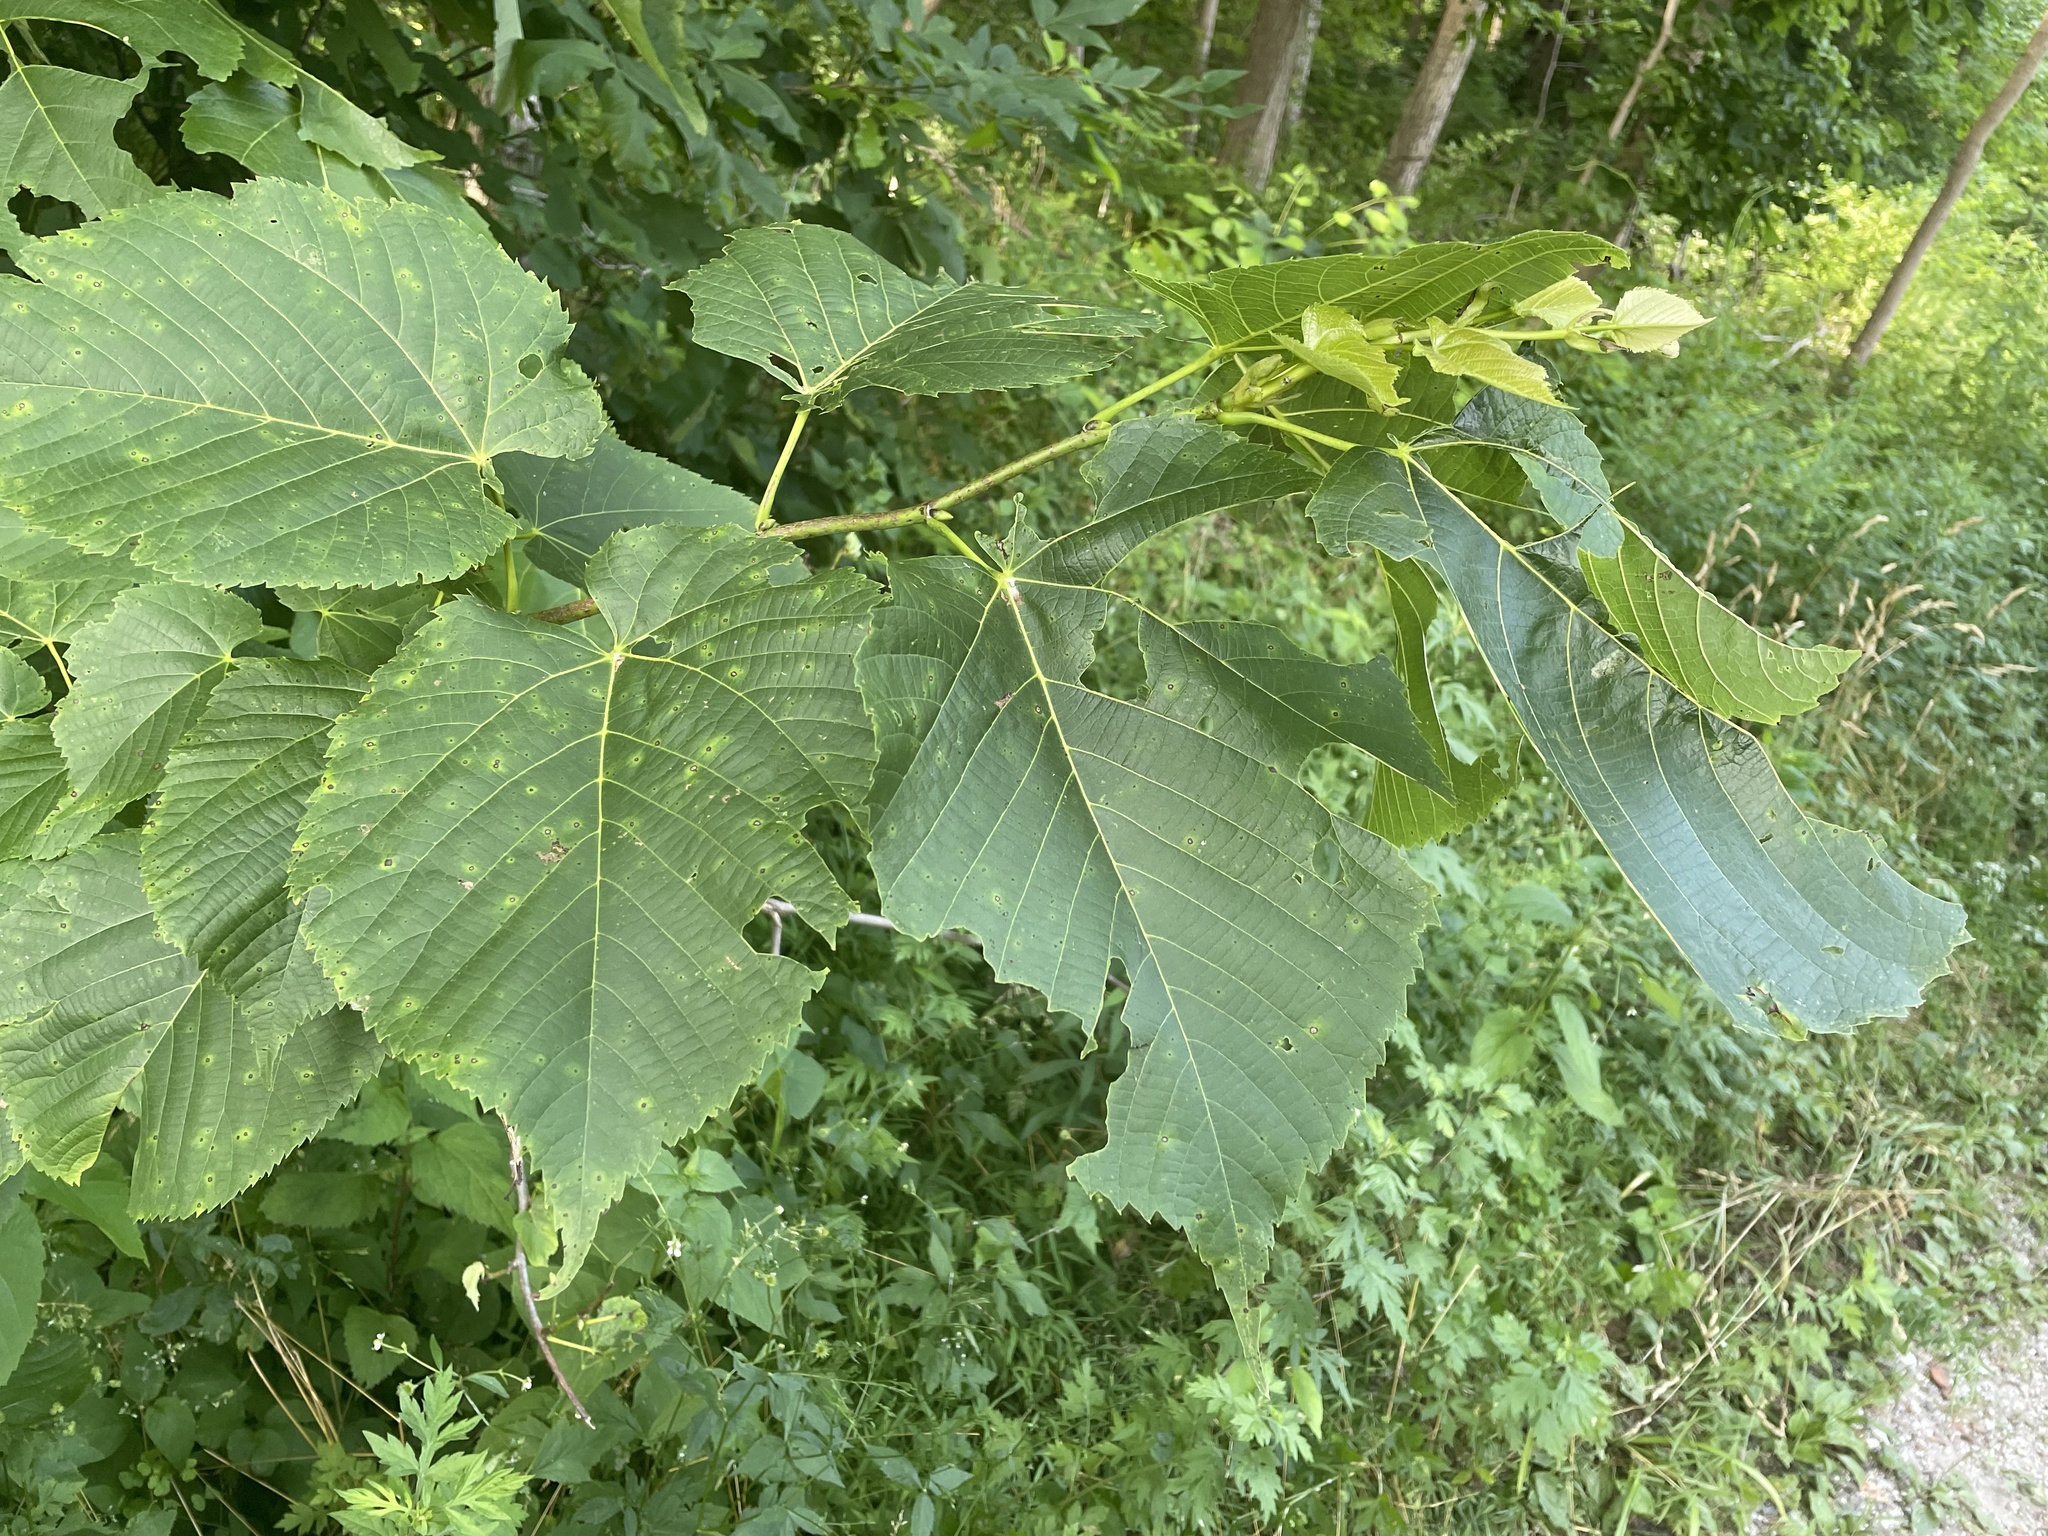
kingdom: Plantae
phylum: Tracheophyta
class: Magnoliopsida
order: Malvales
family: Malvaceae
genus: Tilia
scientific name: Tilia americana
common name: Basswood
